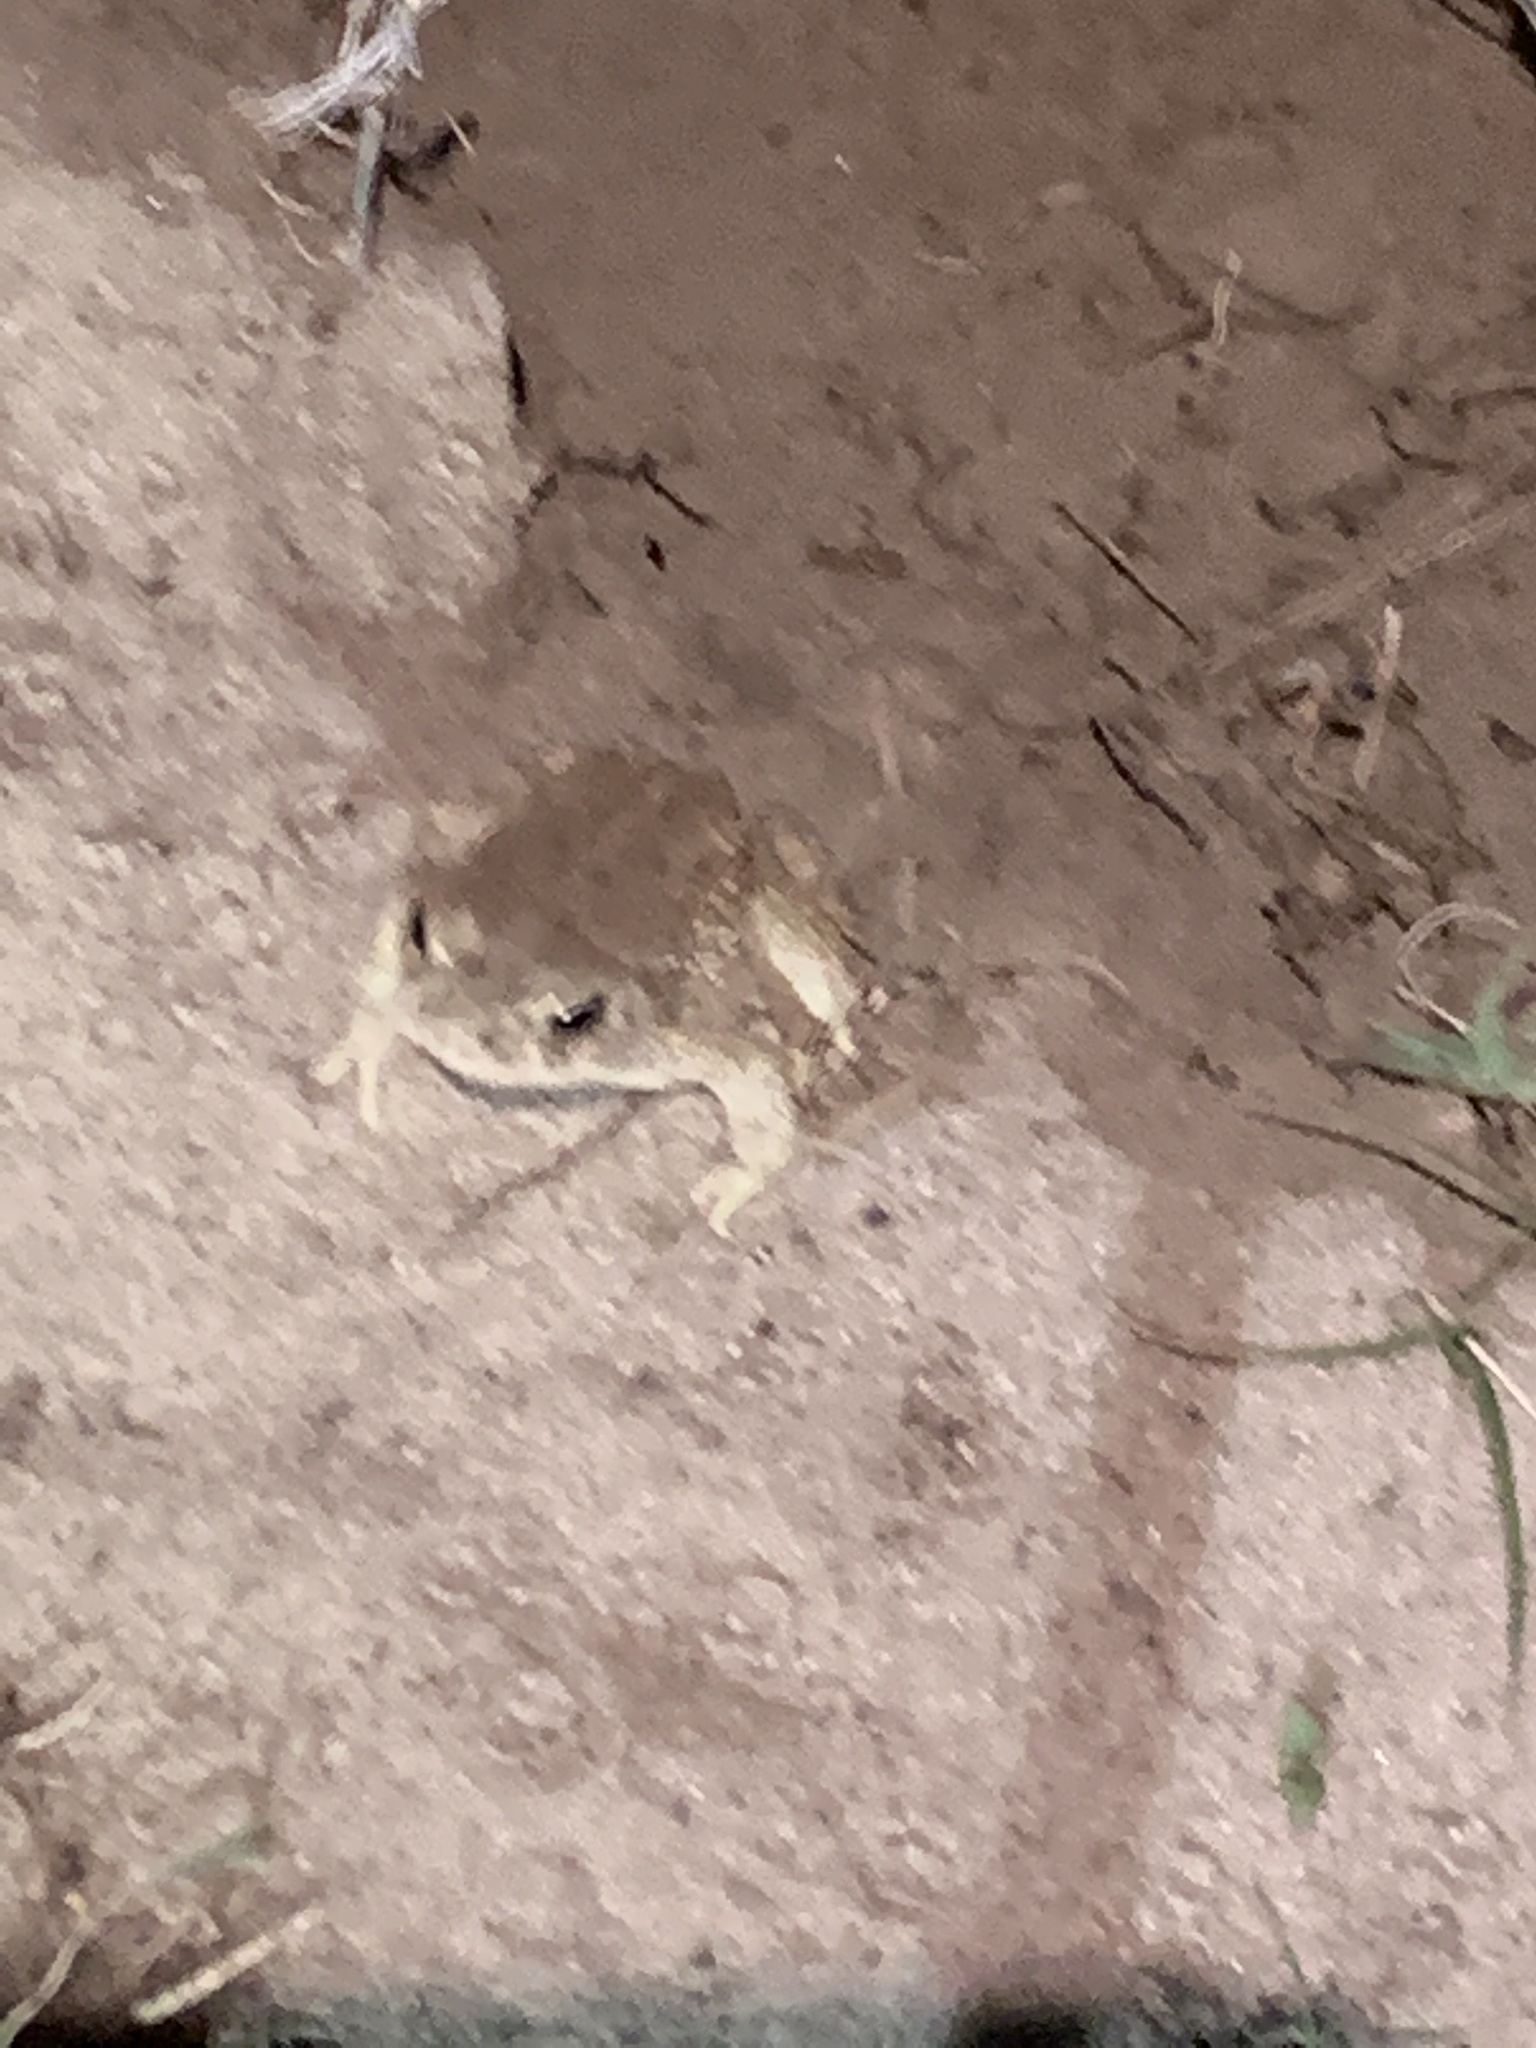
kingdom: Animalia
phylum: Chordata
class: Amphibia
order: Anura
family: Bufonidae
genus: Anaxyrus
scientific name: Anaxyrus woodhousii
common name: Woodhouse's toad
